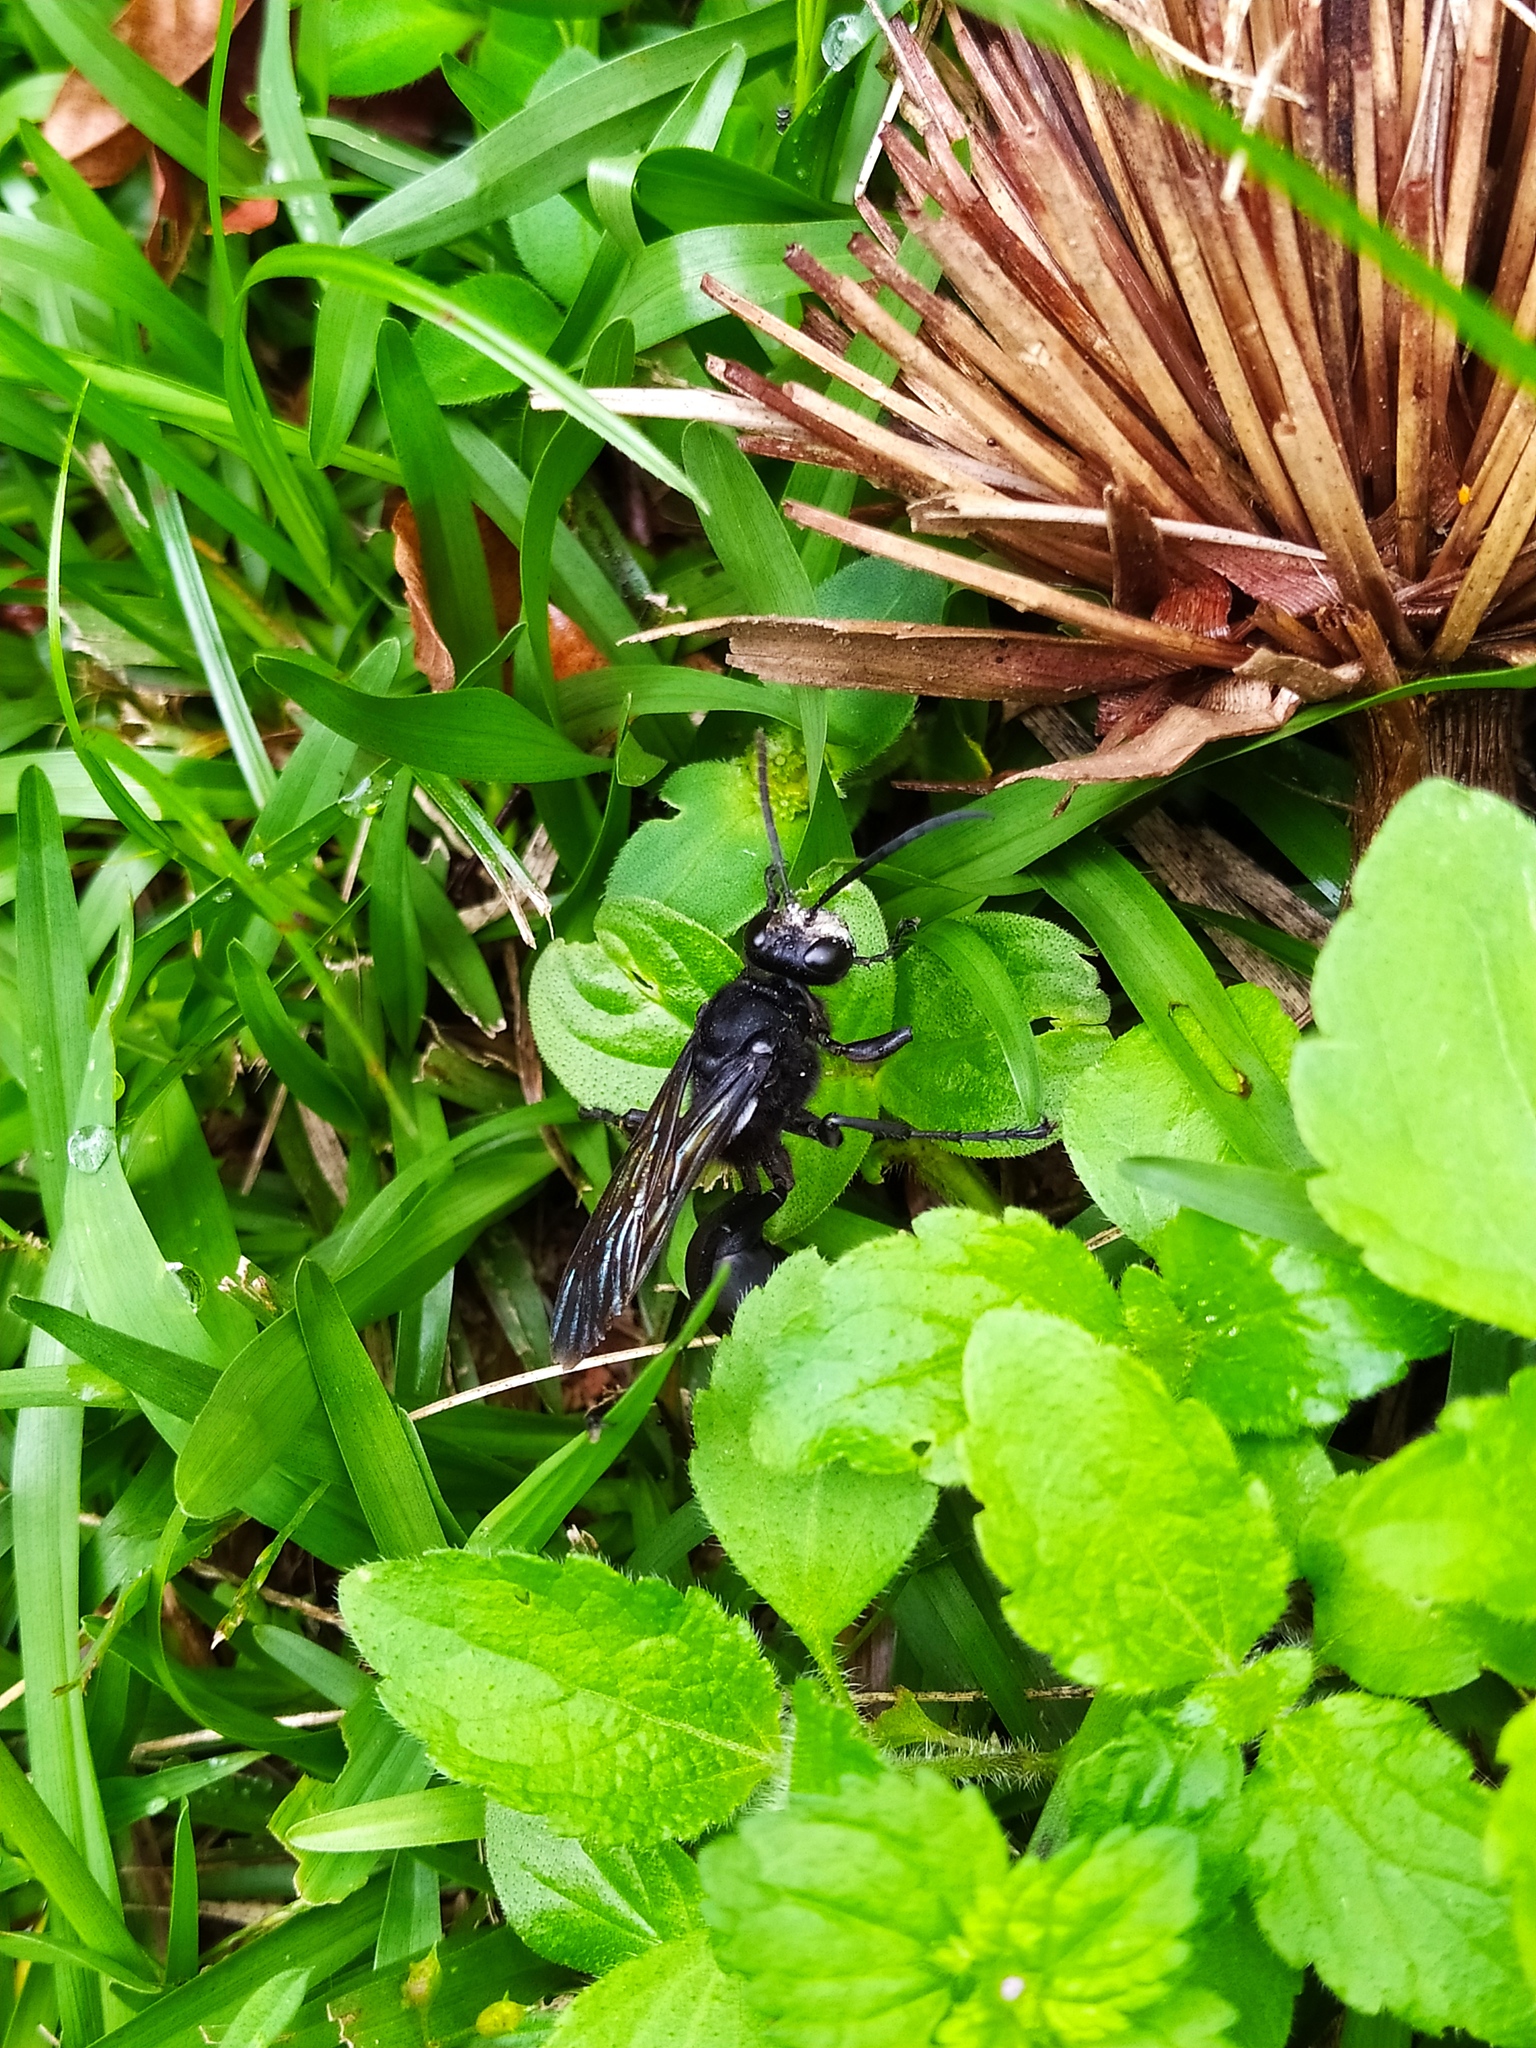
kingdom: Animalia
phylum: Arthropoda
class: Insecta
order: Hymenoptera
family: Sphecidae
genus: Sphex
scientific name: Sphex
